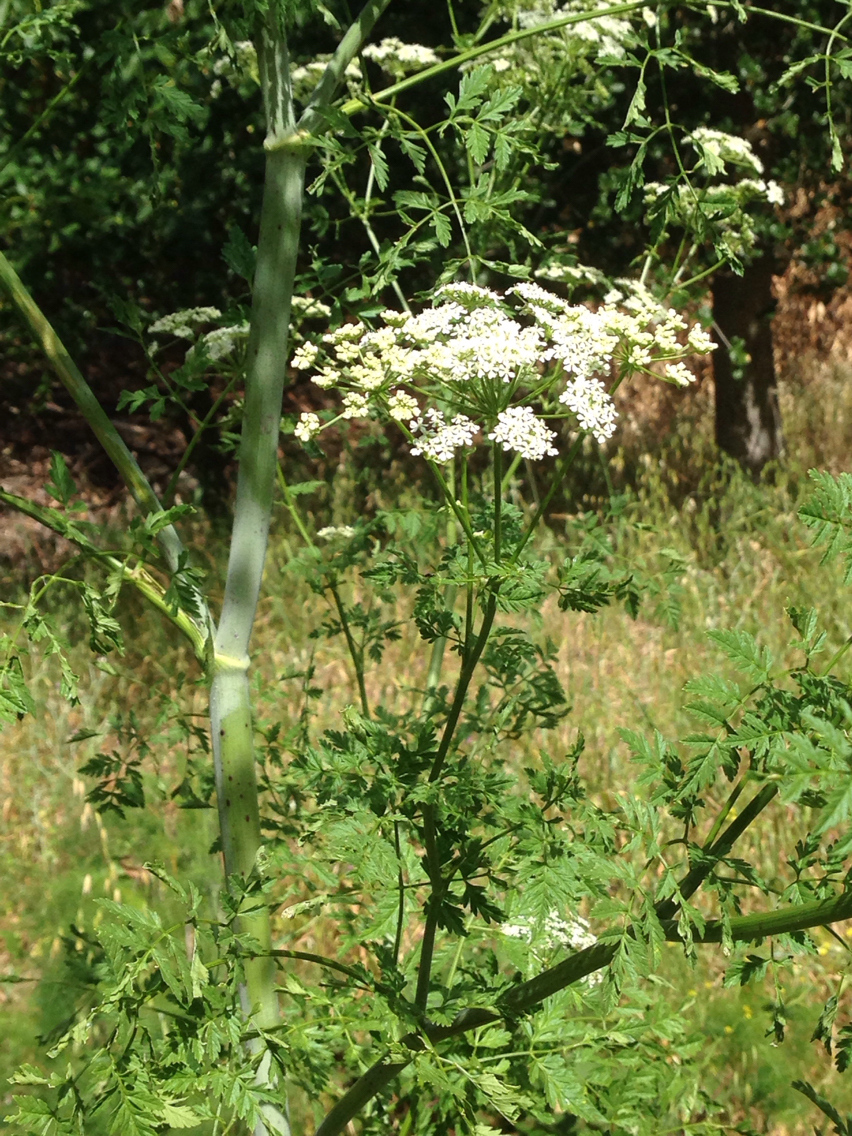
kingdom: Plantae
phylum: Tracheophyta
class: Magnoliopsida
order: Apiales
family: Apiaceae
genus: Conium
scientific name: Conium maculatum
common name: Hemlock
